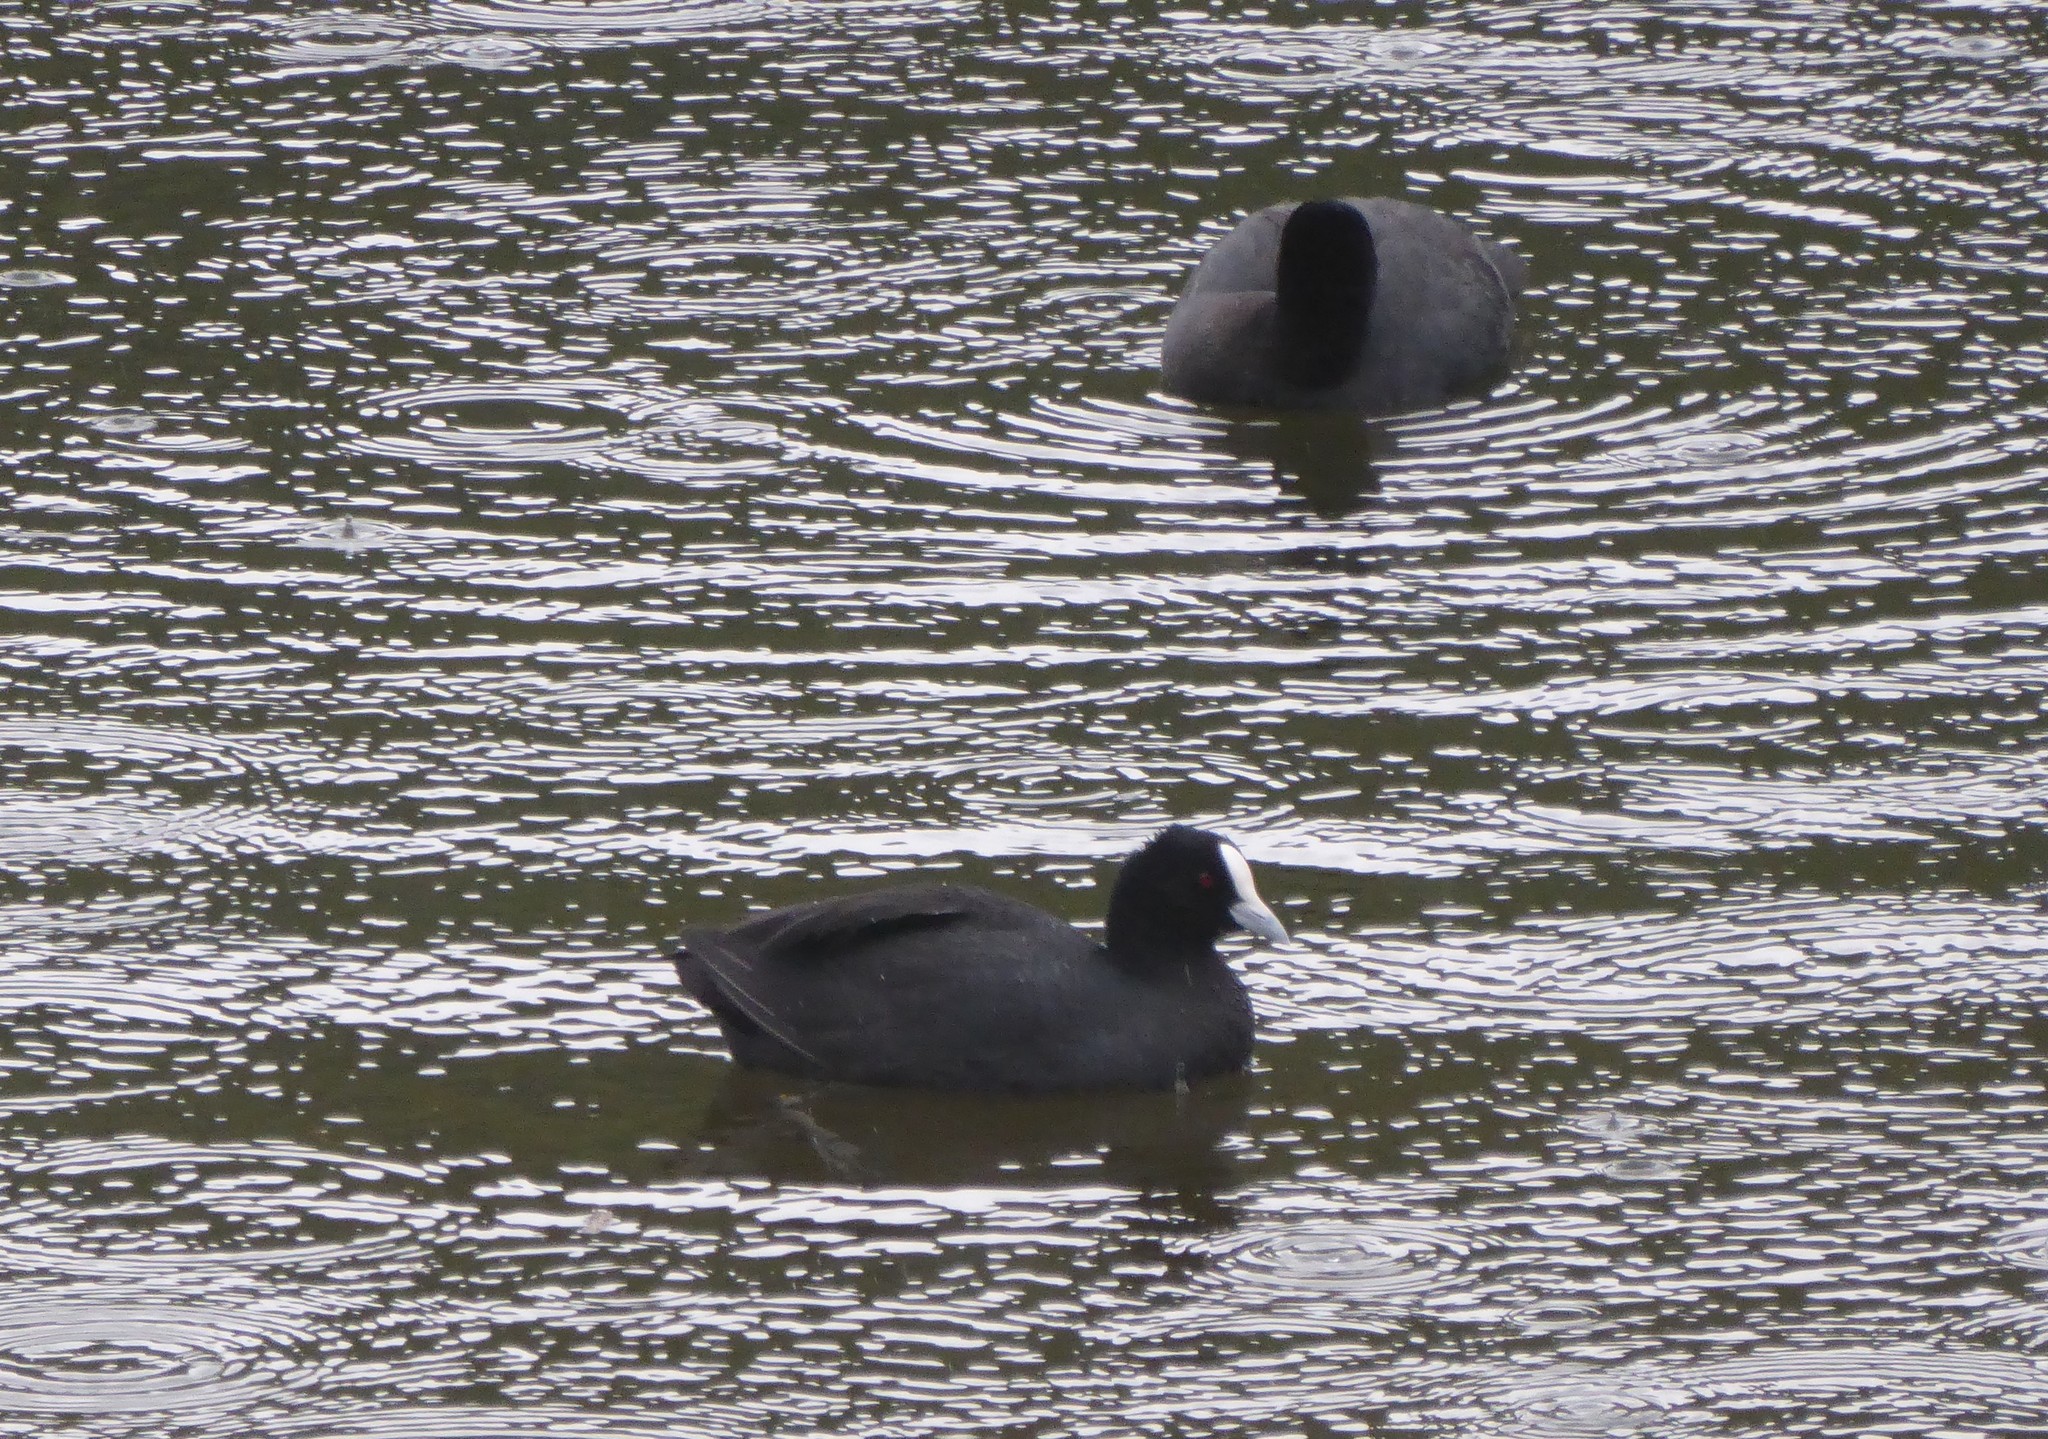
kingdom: Animalia
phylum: Chordata
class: Aves
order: Gruiformes
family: Rallidae
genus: Fulica
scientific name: Fulica atra
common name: Eurasian coot
